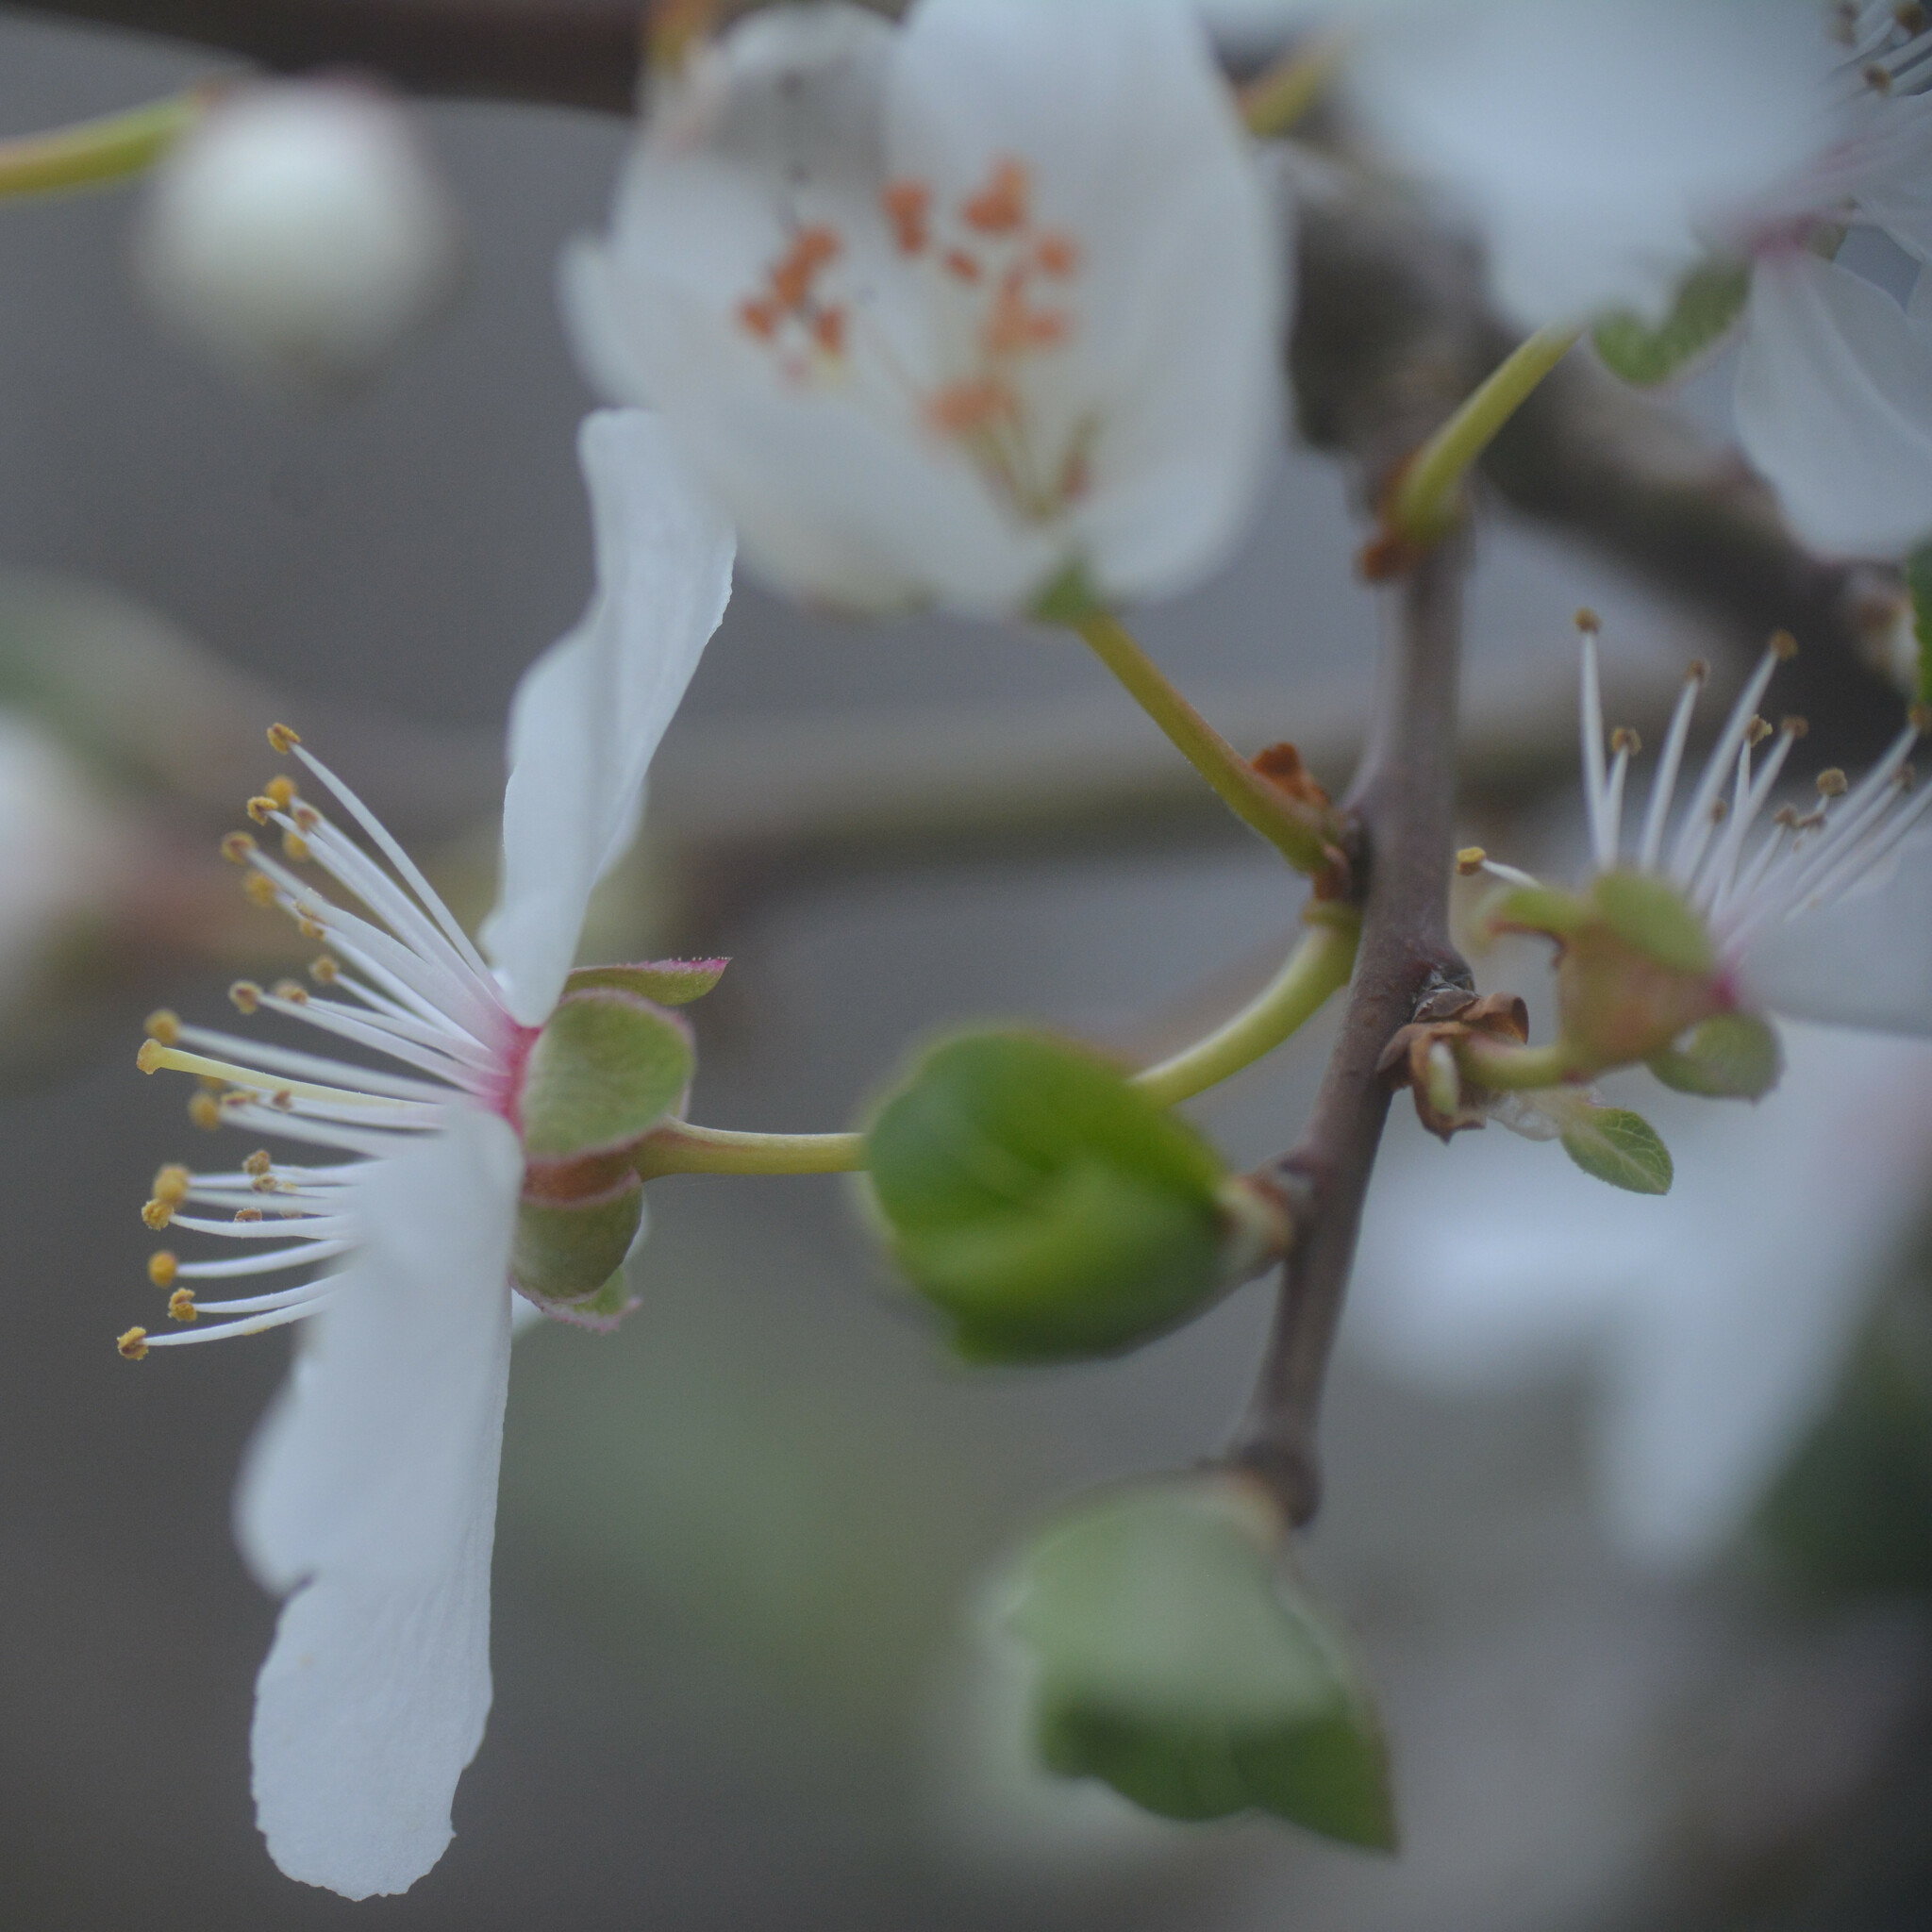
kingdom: Plantae
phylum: Tracheophyta
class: Magnoliopsida
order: Rosales
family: Rosaceae
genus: Prunus
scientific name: Prunus cerasifera
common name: Cherry plum
